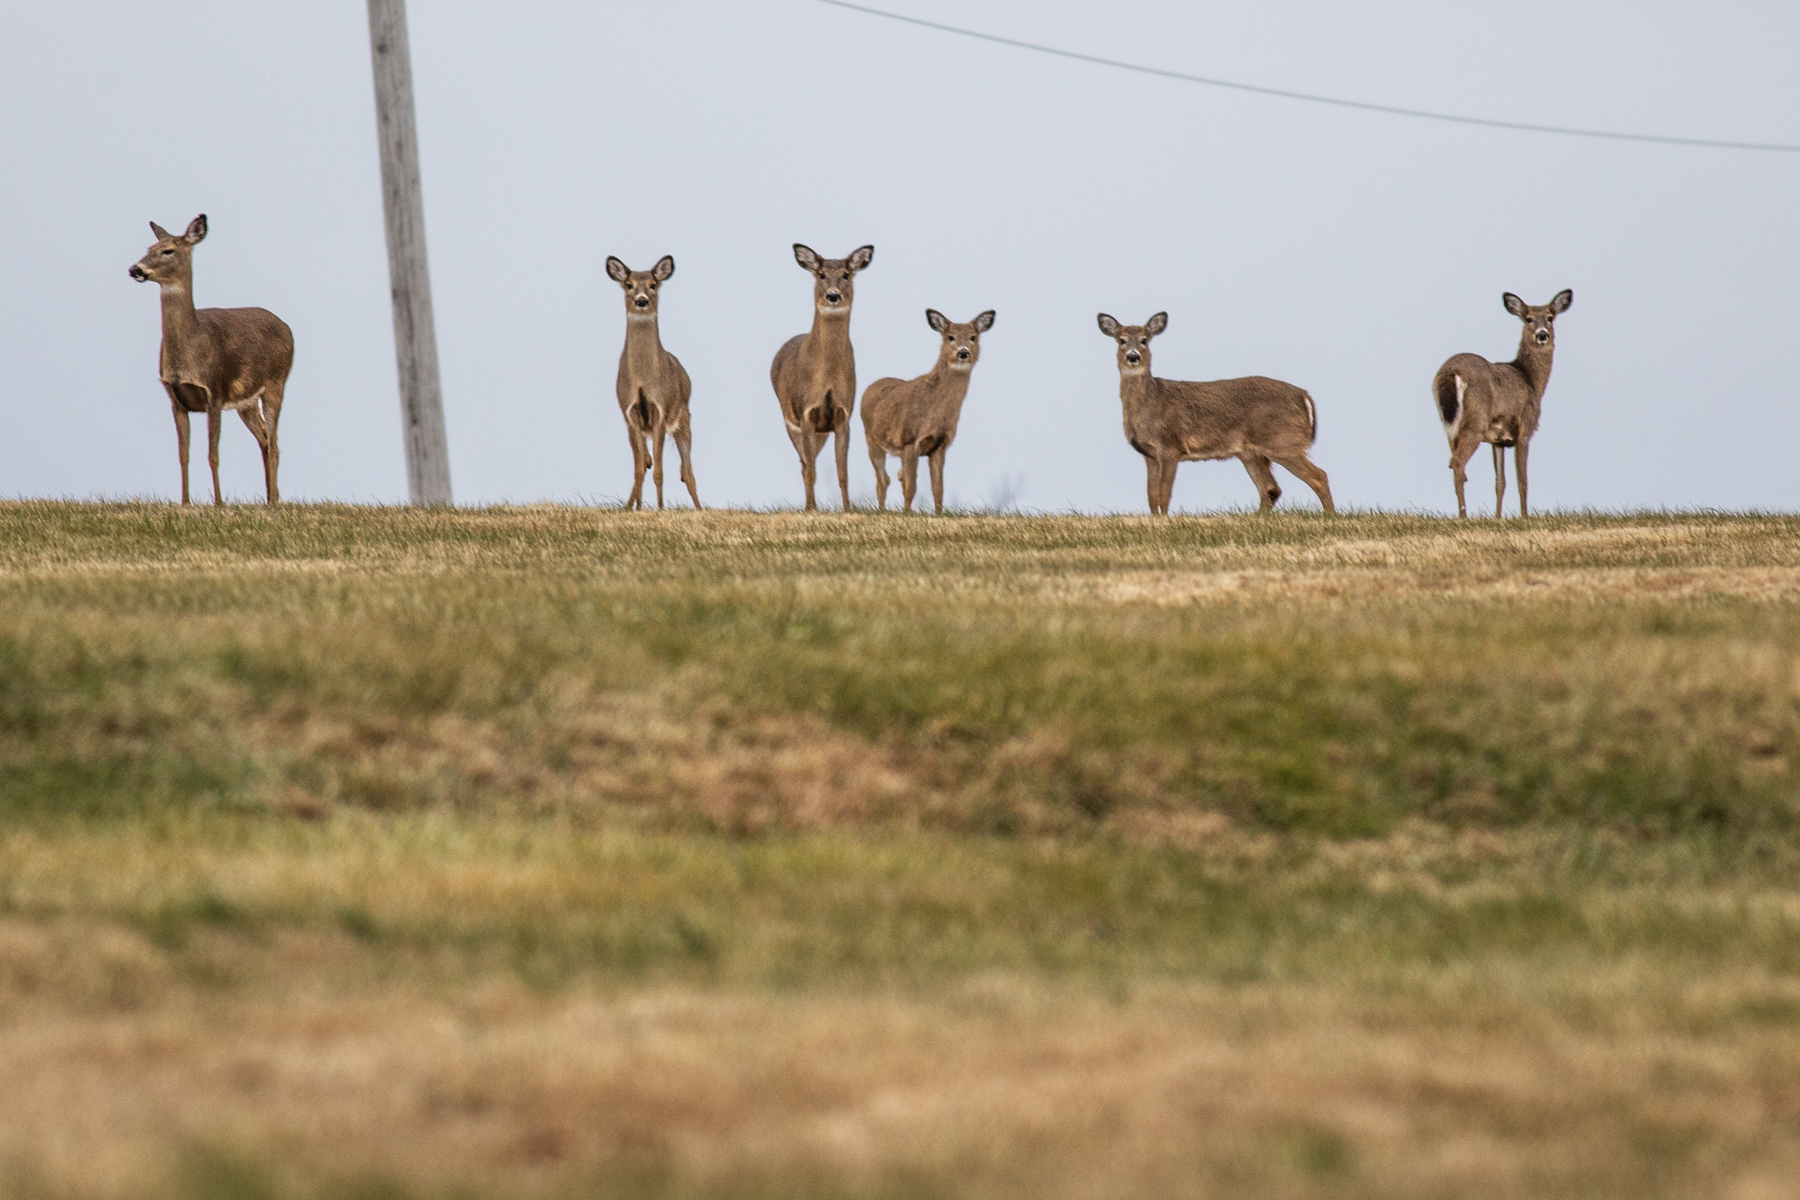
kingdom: Animalia
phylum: Chordata
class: Mammalia
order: Artiodactyla
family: Cervidae
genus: Odocoileus
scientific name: Odocoileus virginianus
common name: White-tailed deer
